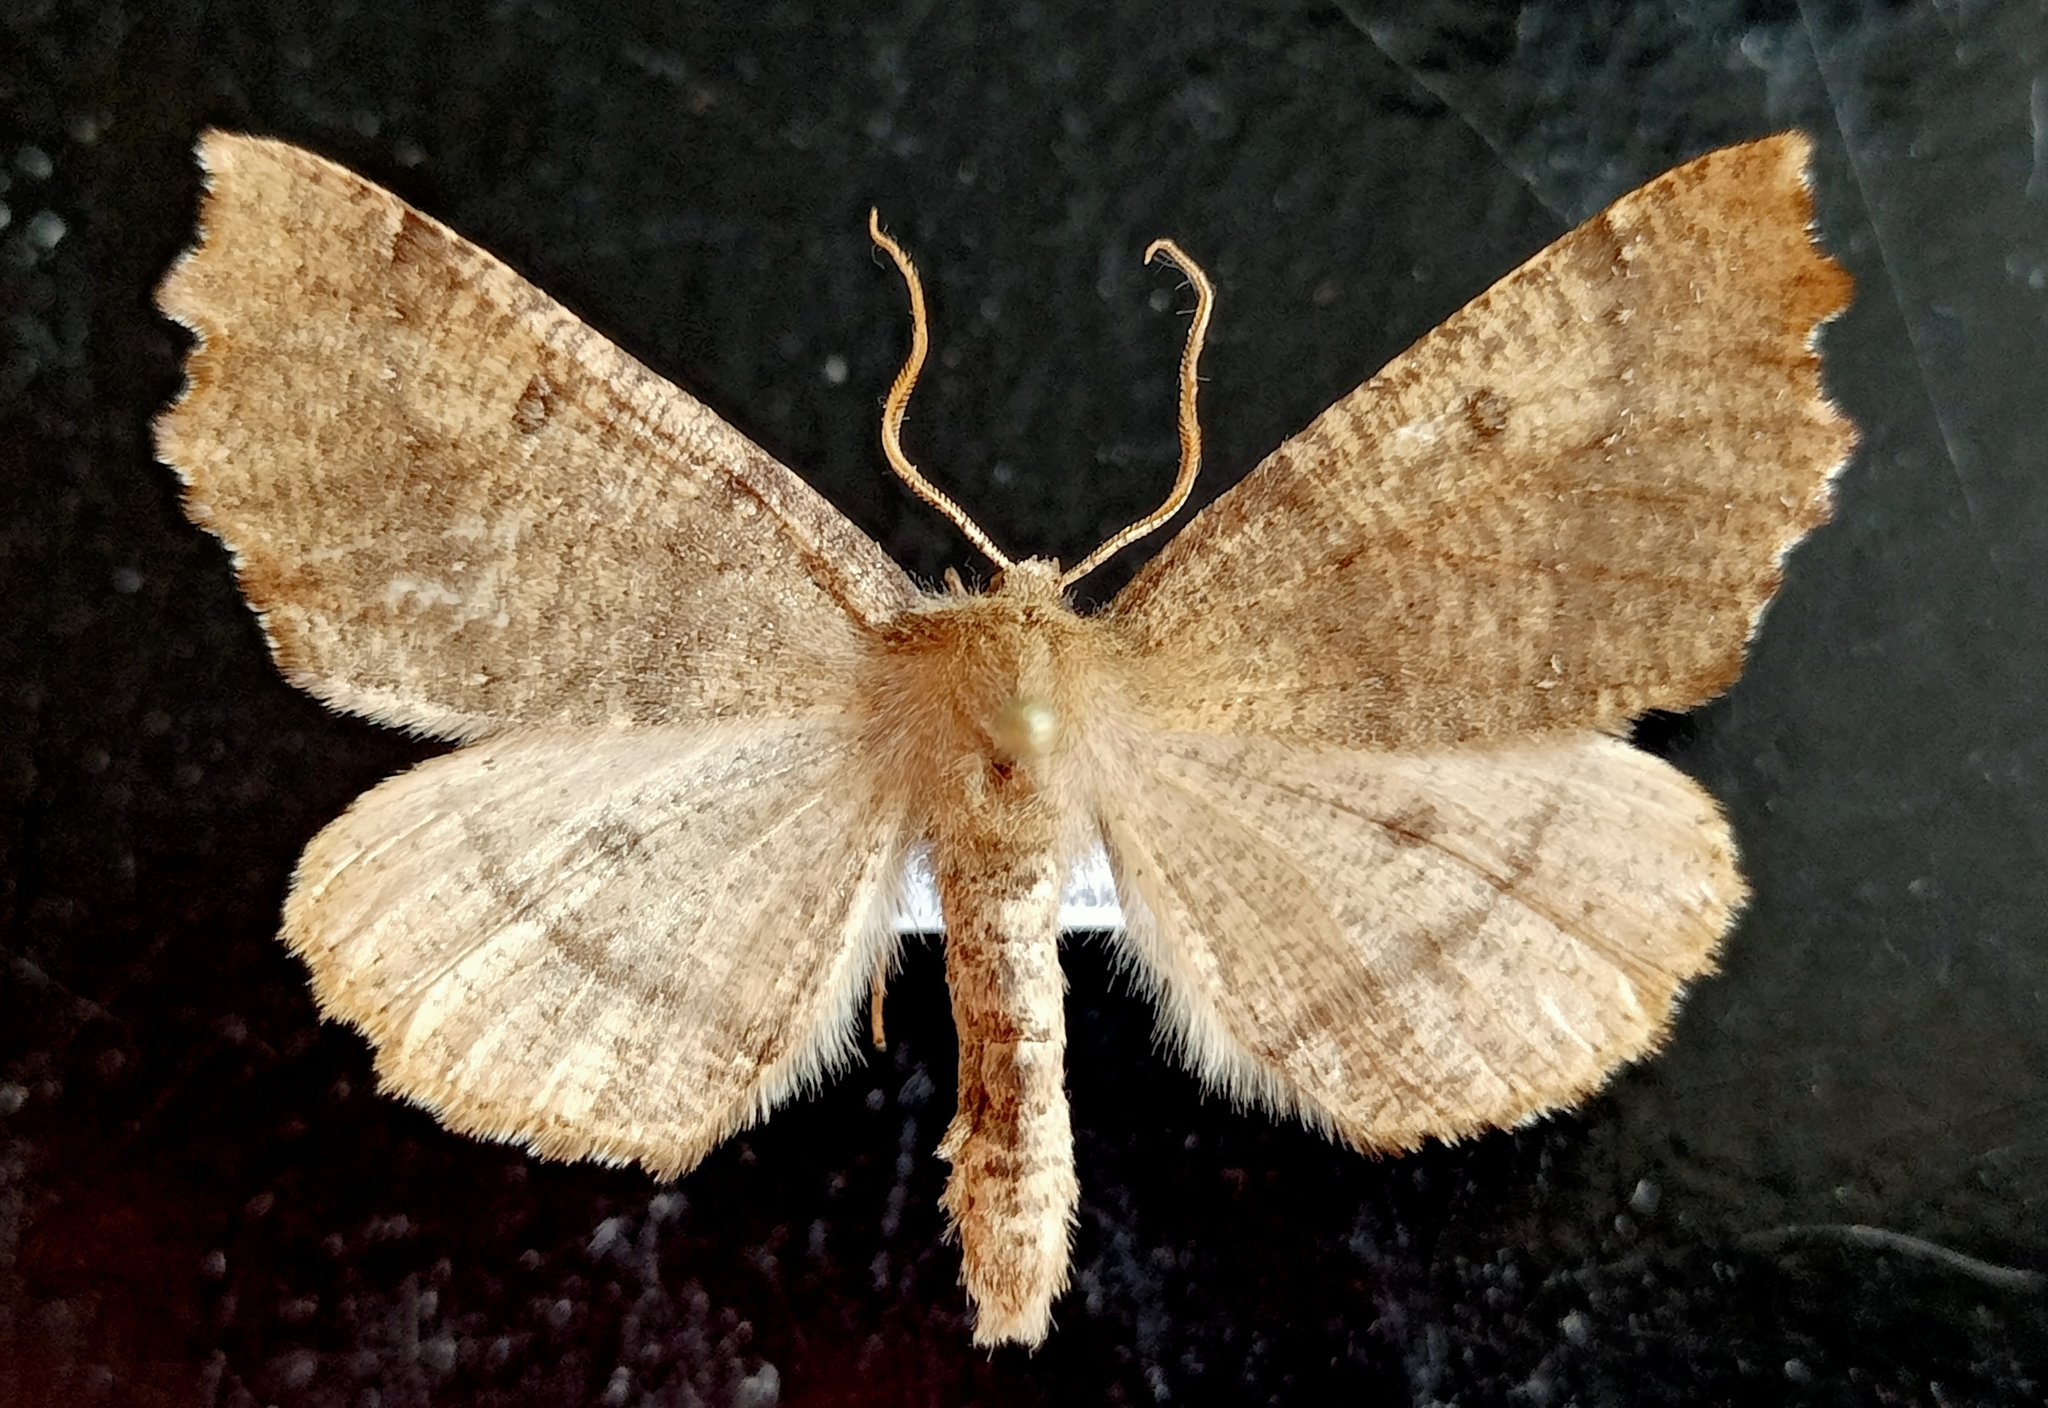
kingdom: Animalia
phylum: Arthropoda
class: Insecta
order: Lepidoptera
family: Geometridae
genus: Odontopera
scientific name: Odontopera bidentata
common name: Scalloped hazel
